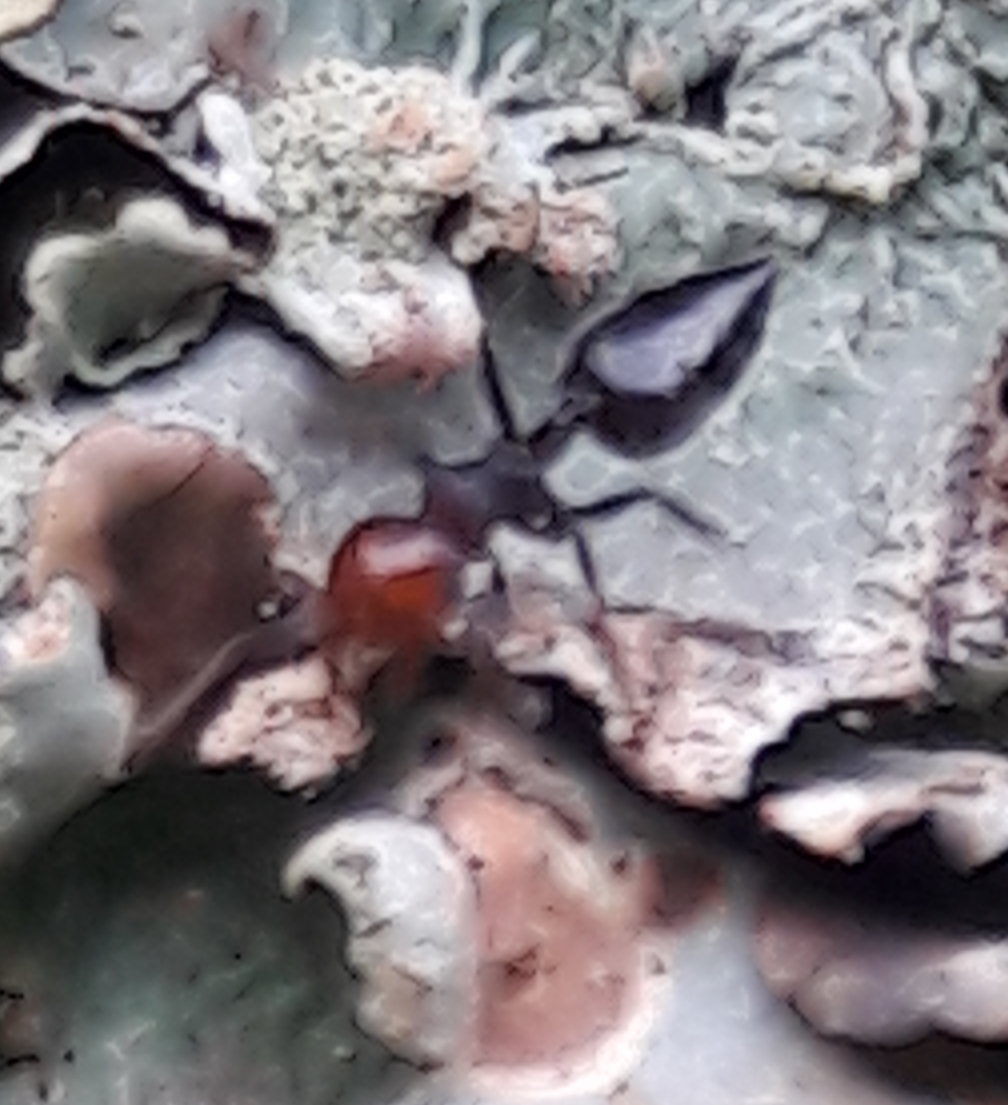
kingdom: Animalia
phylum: Arthropoda
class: Insecta
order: Hymenoptera
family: Formicidae
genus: Crematogaster
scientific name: Crematogaster scutellaris
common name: Fourmi du liège
